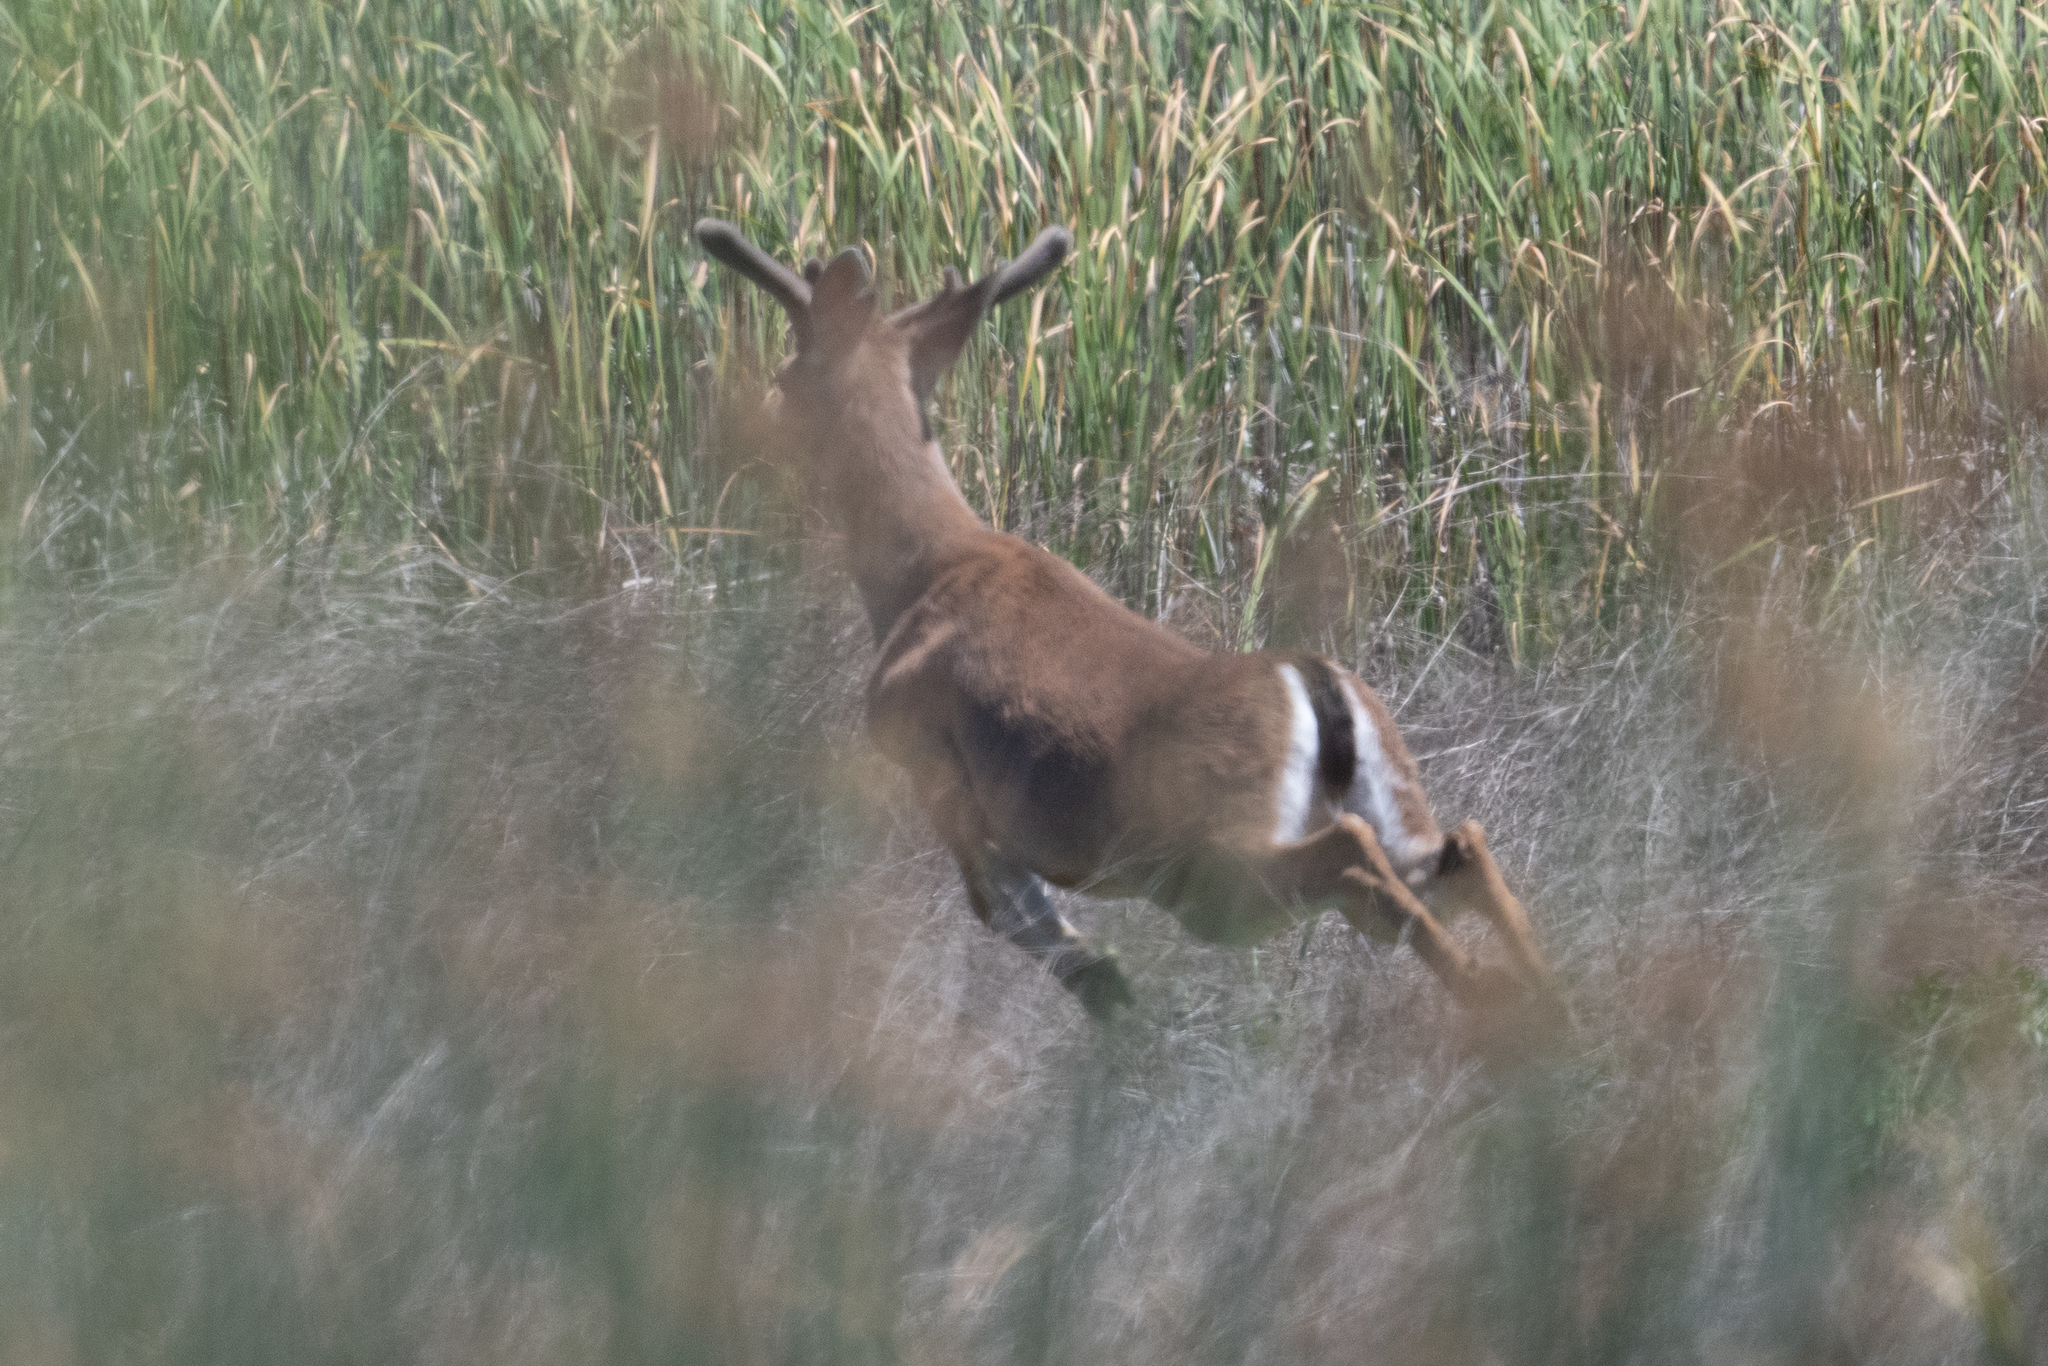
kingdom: Animalia
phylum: Chordata
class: Mammalia
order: Artiodactyla
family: Cervidae
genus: Odocoileus
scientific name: Odocoileus hemionus
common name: Mule deer
